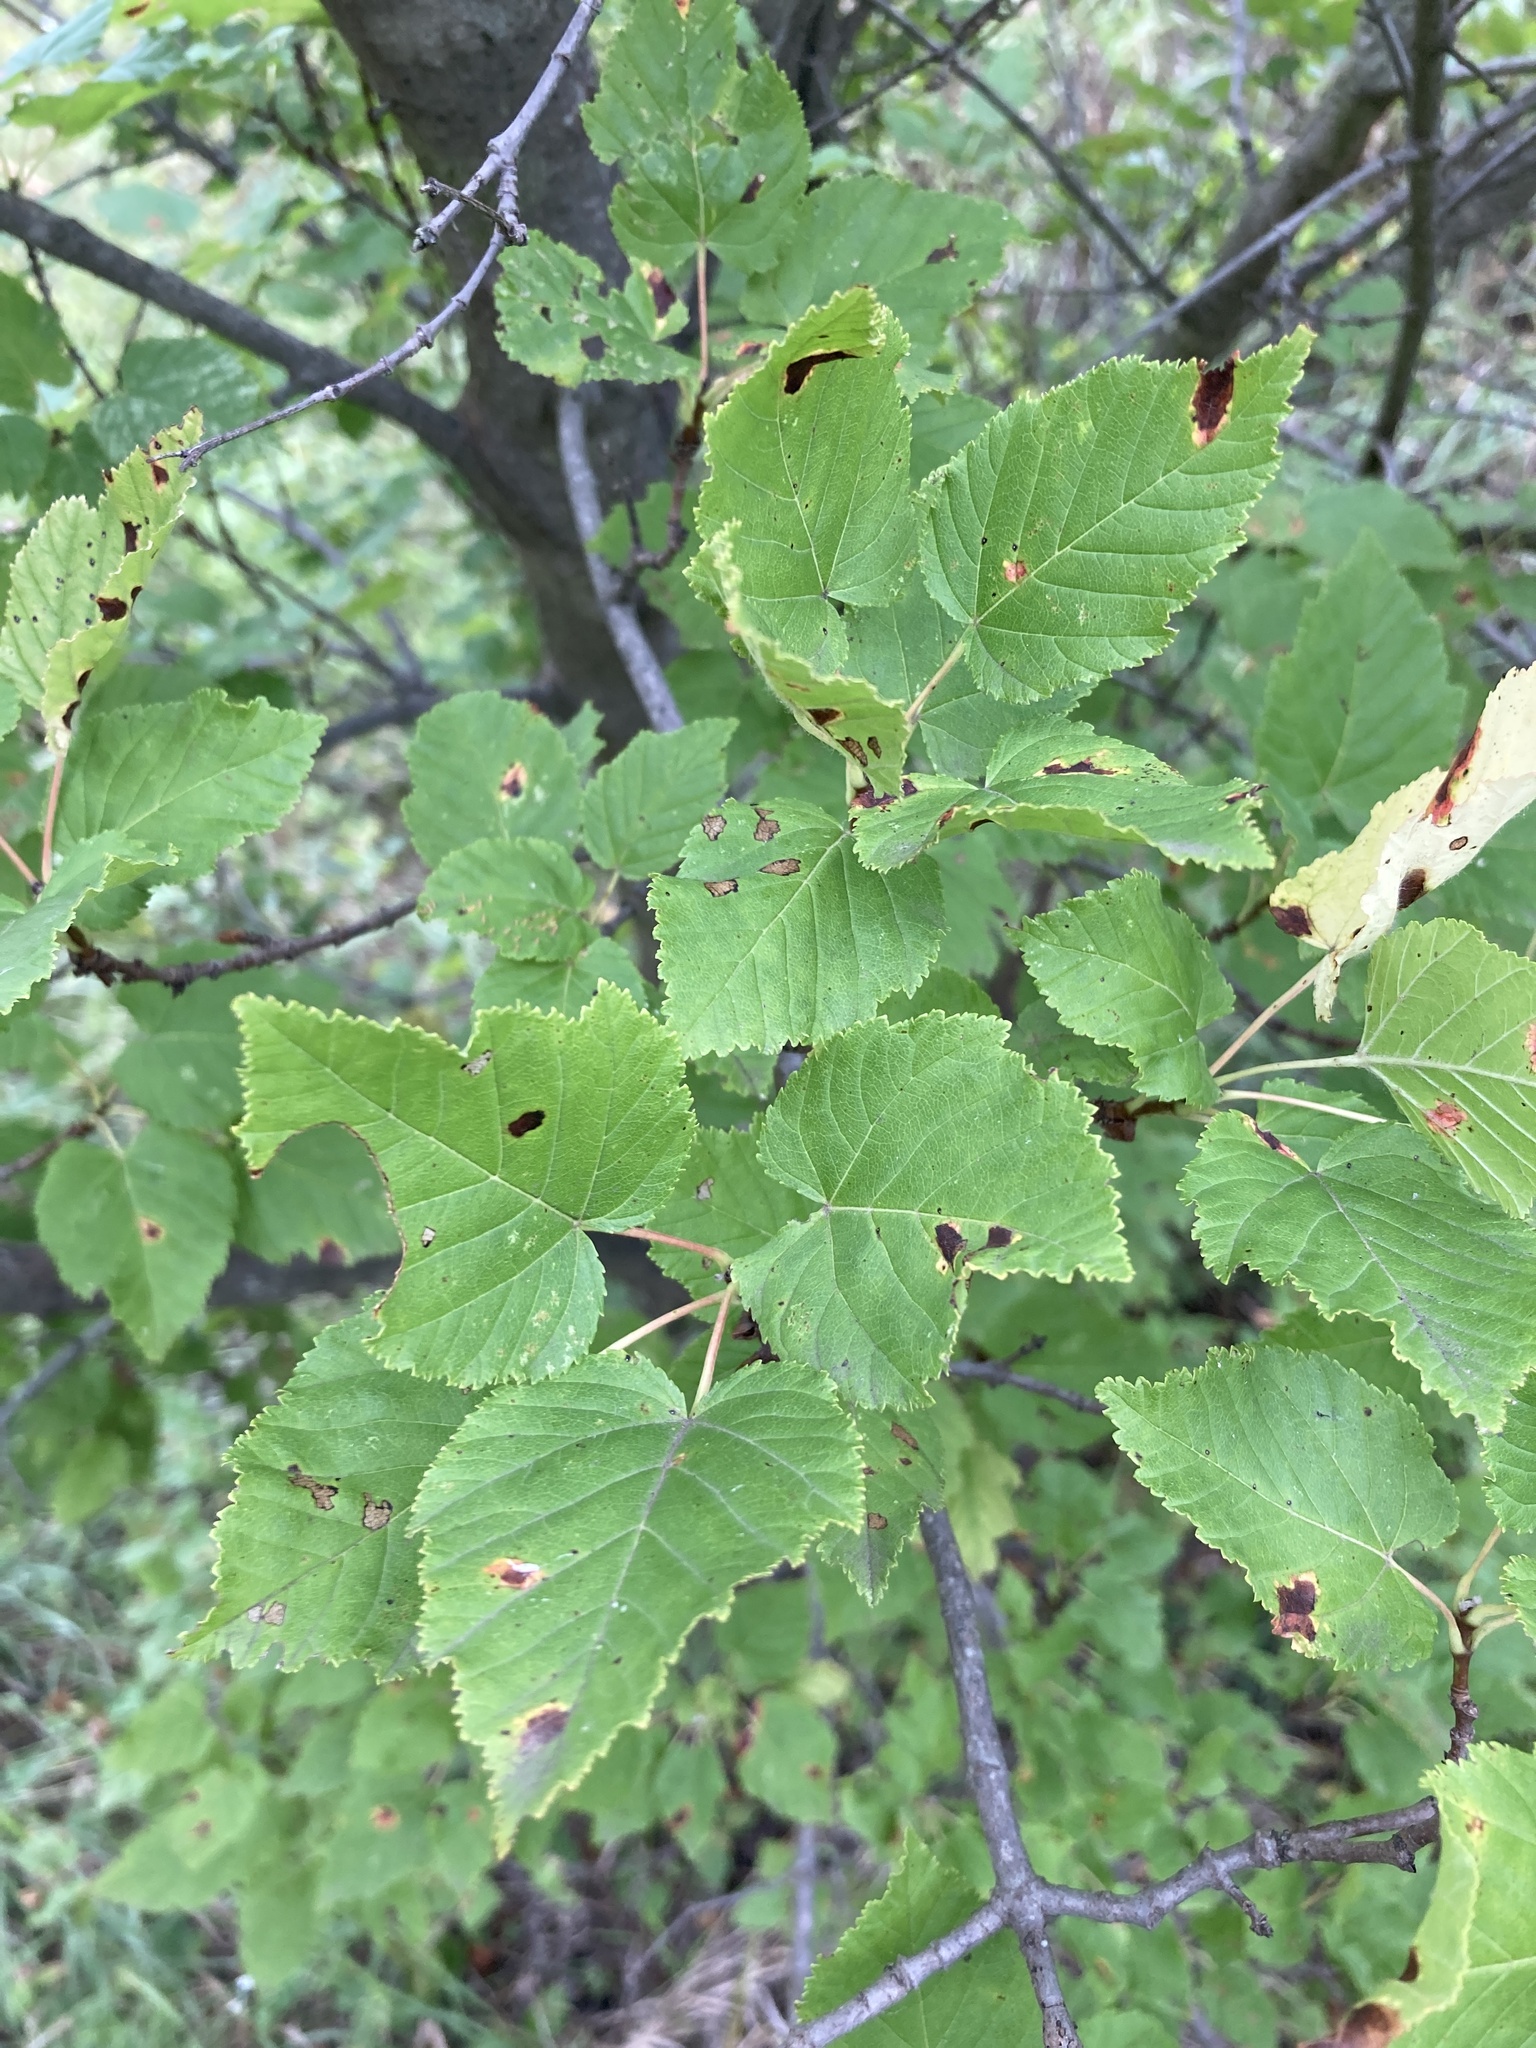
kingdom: Plantae
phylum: Tracheophyta
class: Magnoliopsida
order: Sapindales
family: Sapindaceae
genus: Acer
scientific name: Acer tataricum
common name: Tartar maple
